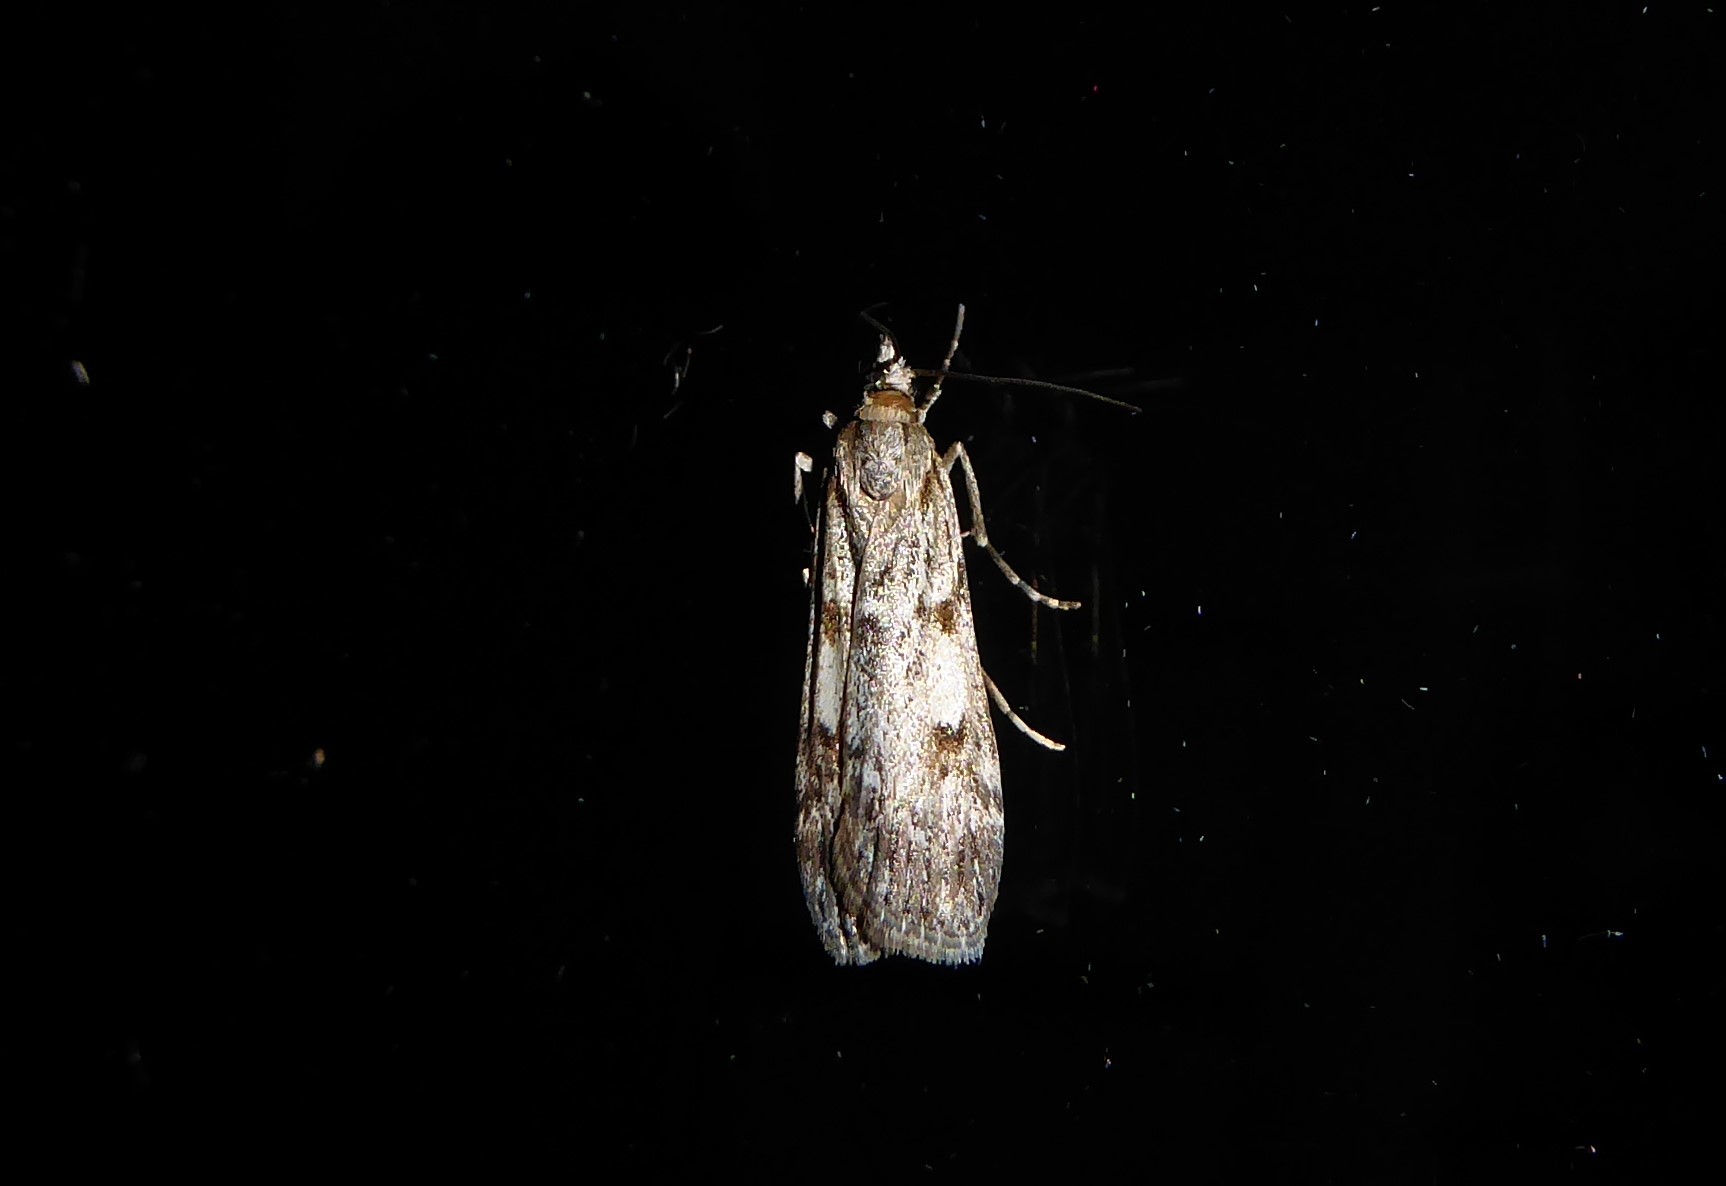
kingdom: Animalia
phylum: Arthropoda
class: Insecta
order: Lepidoptera
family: Crambidae
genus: Scoparia
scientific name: Scoparia halopis
